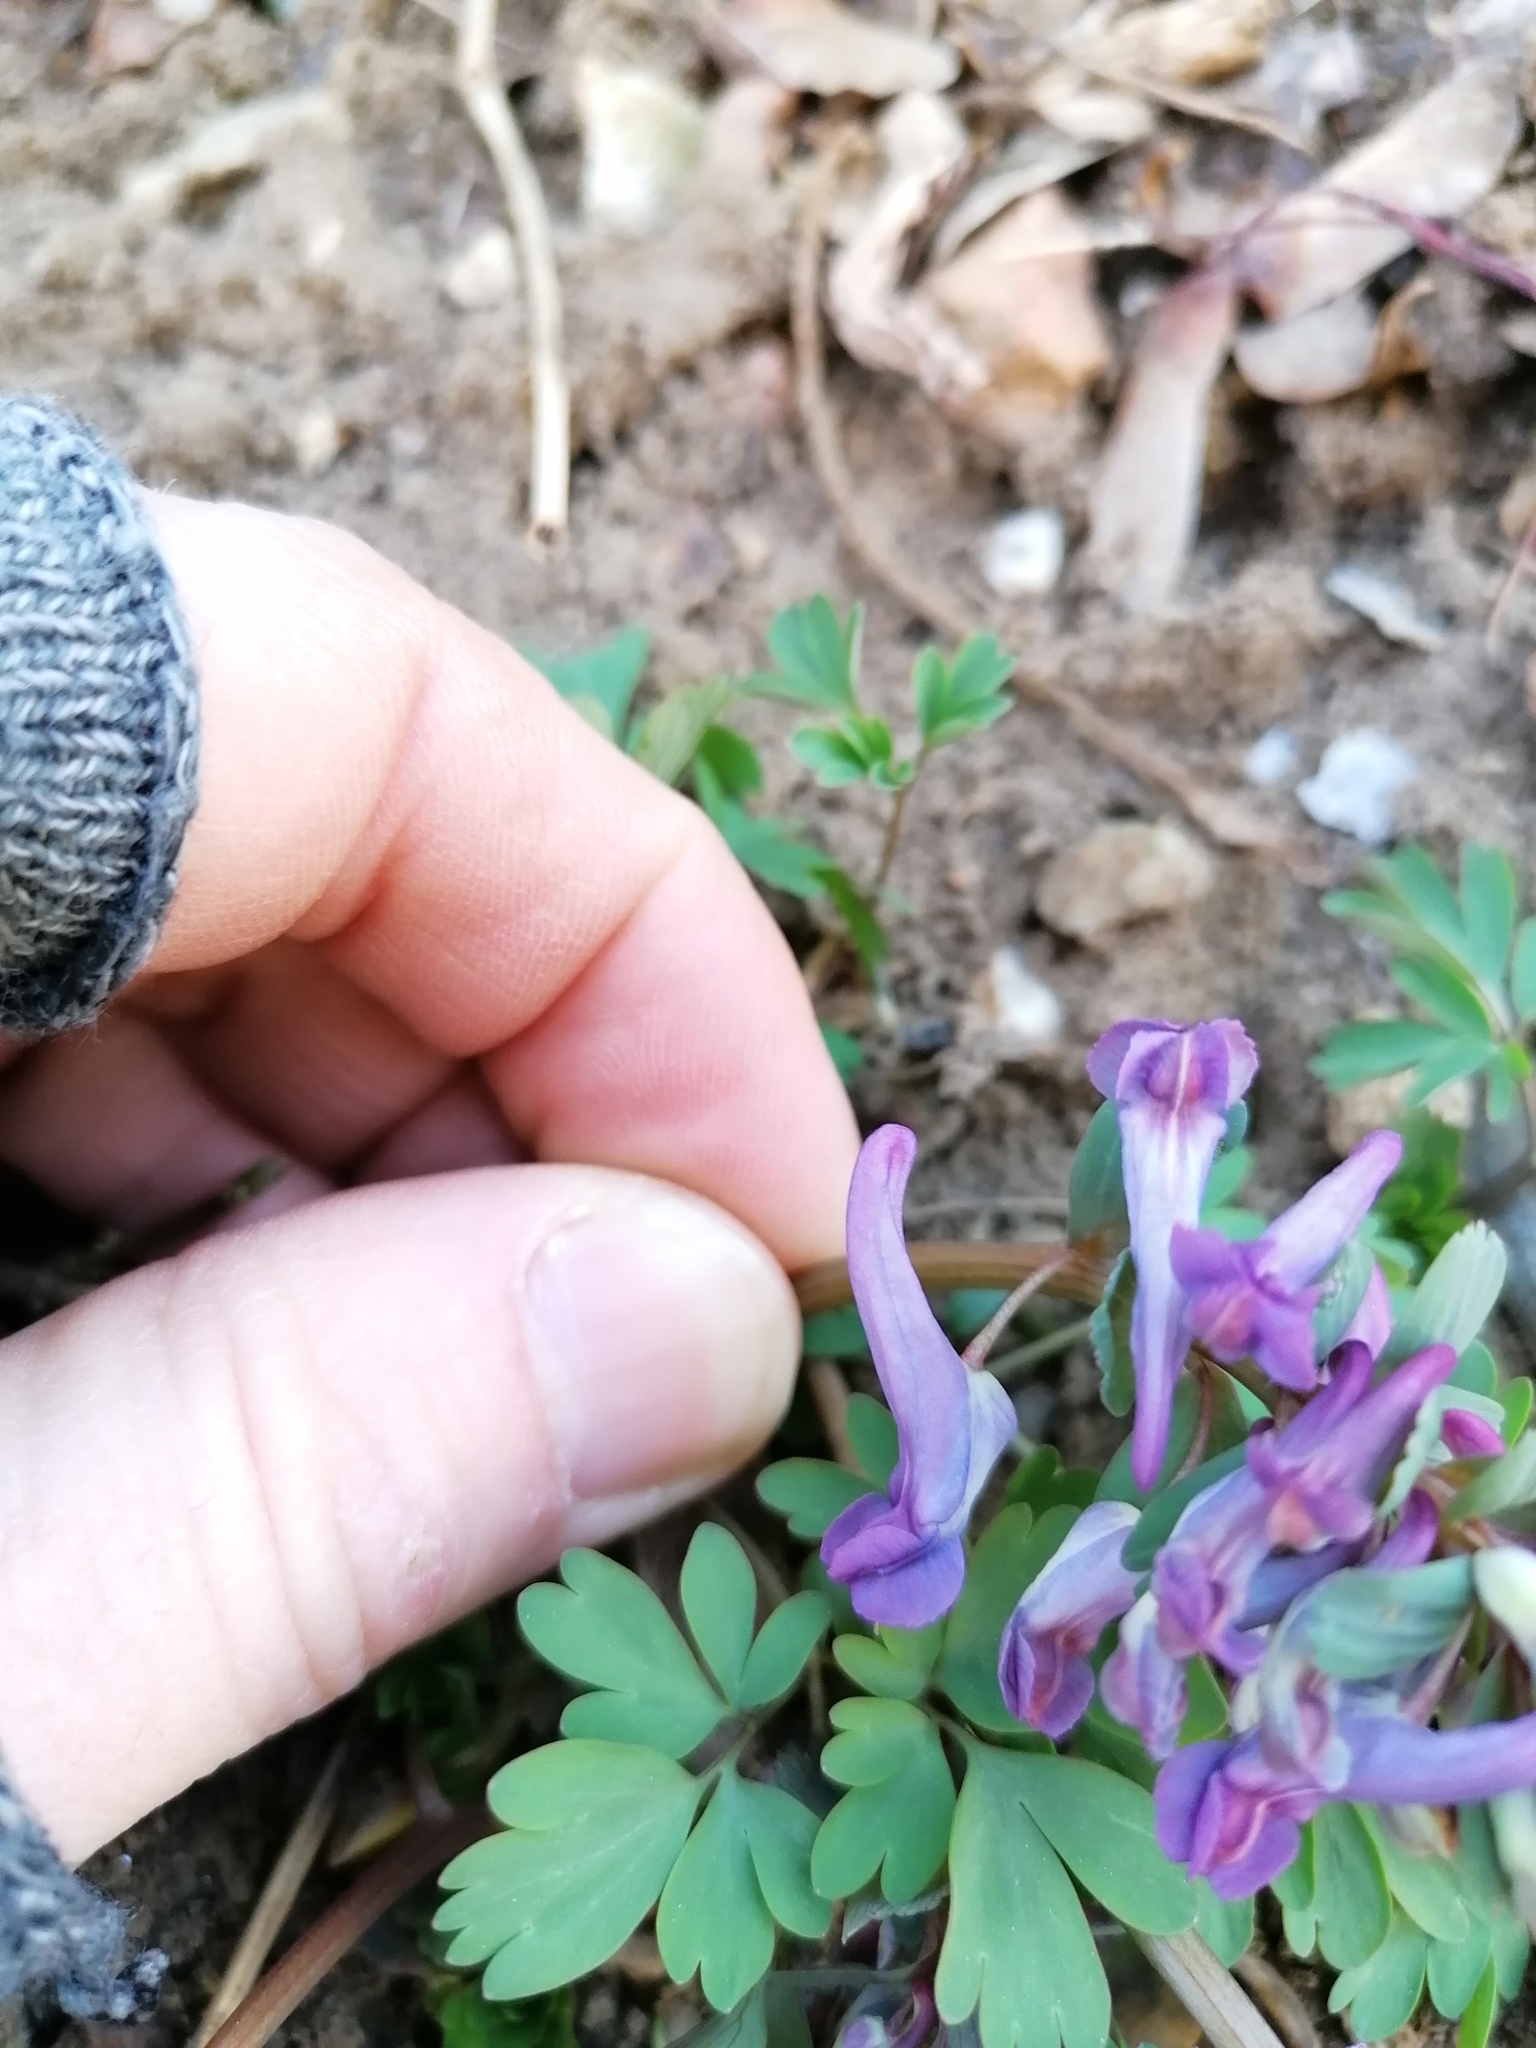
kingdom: Plantae
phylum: Tracheophyta
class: Magnoliopsida
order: Ranunculales
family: Papaveraceae
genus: Corydalis
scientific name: Corydalis solida
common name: Bird-in-a-bush
